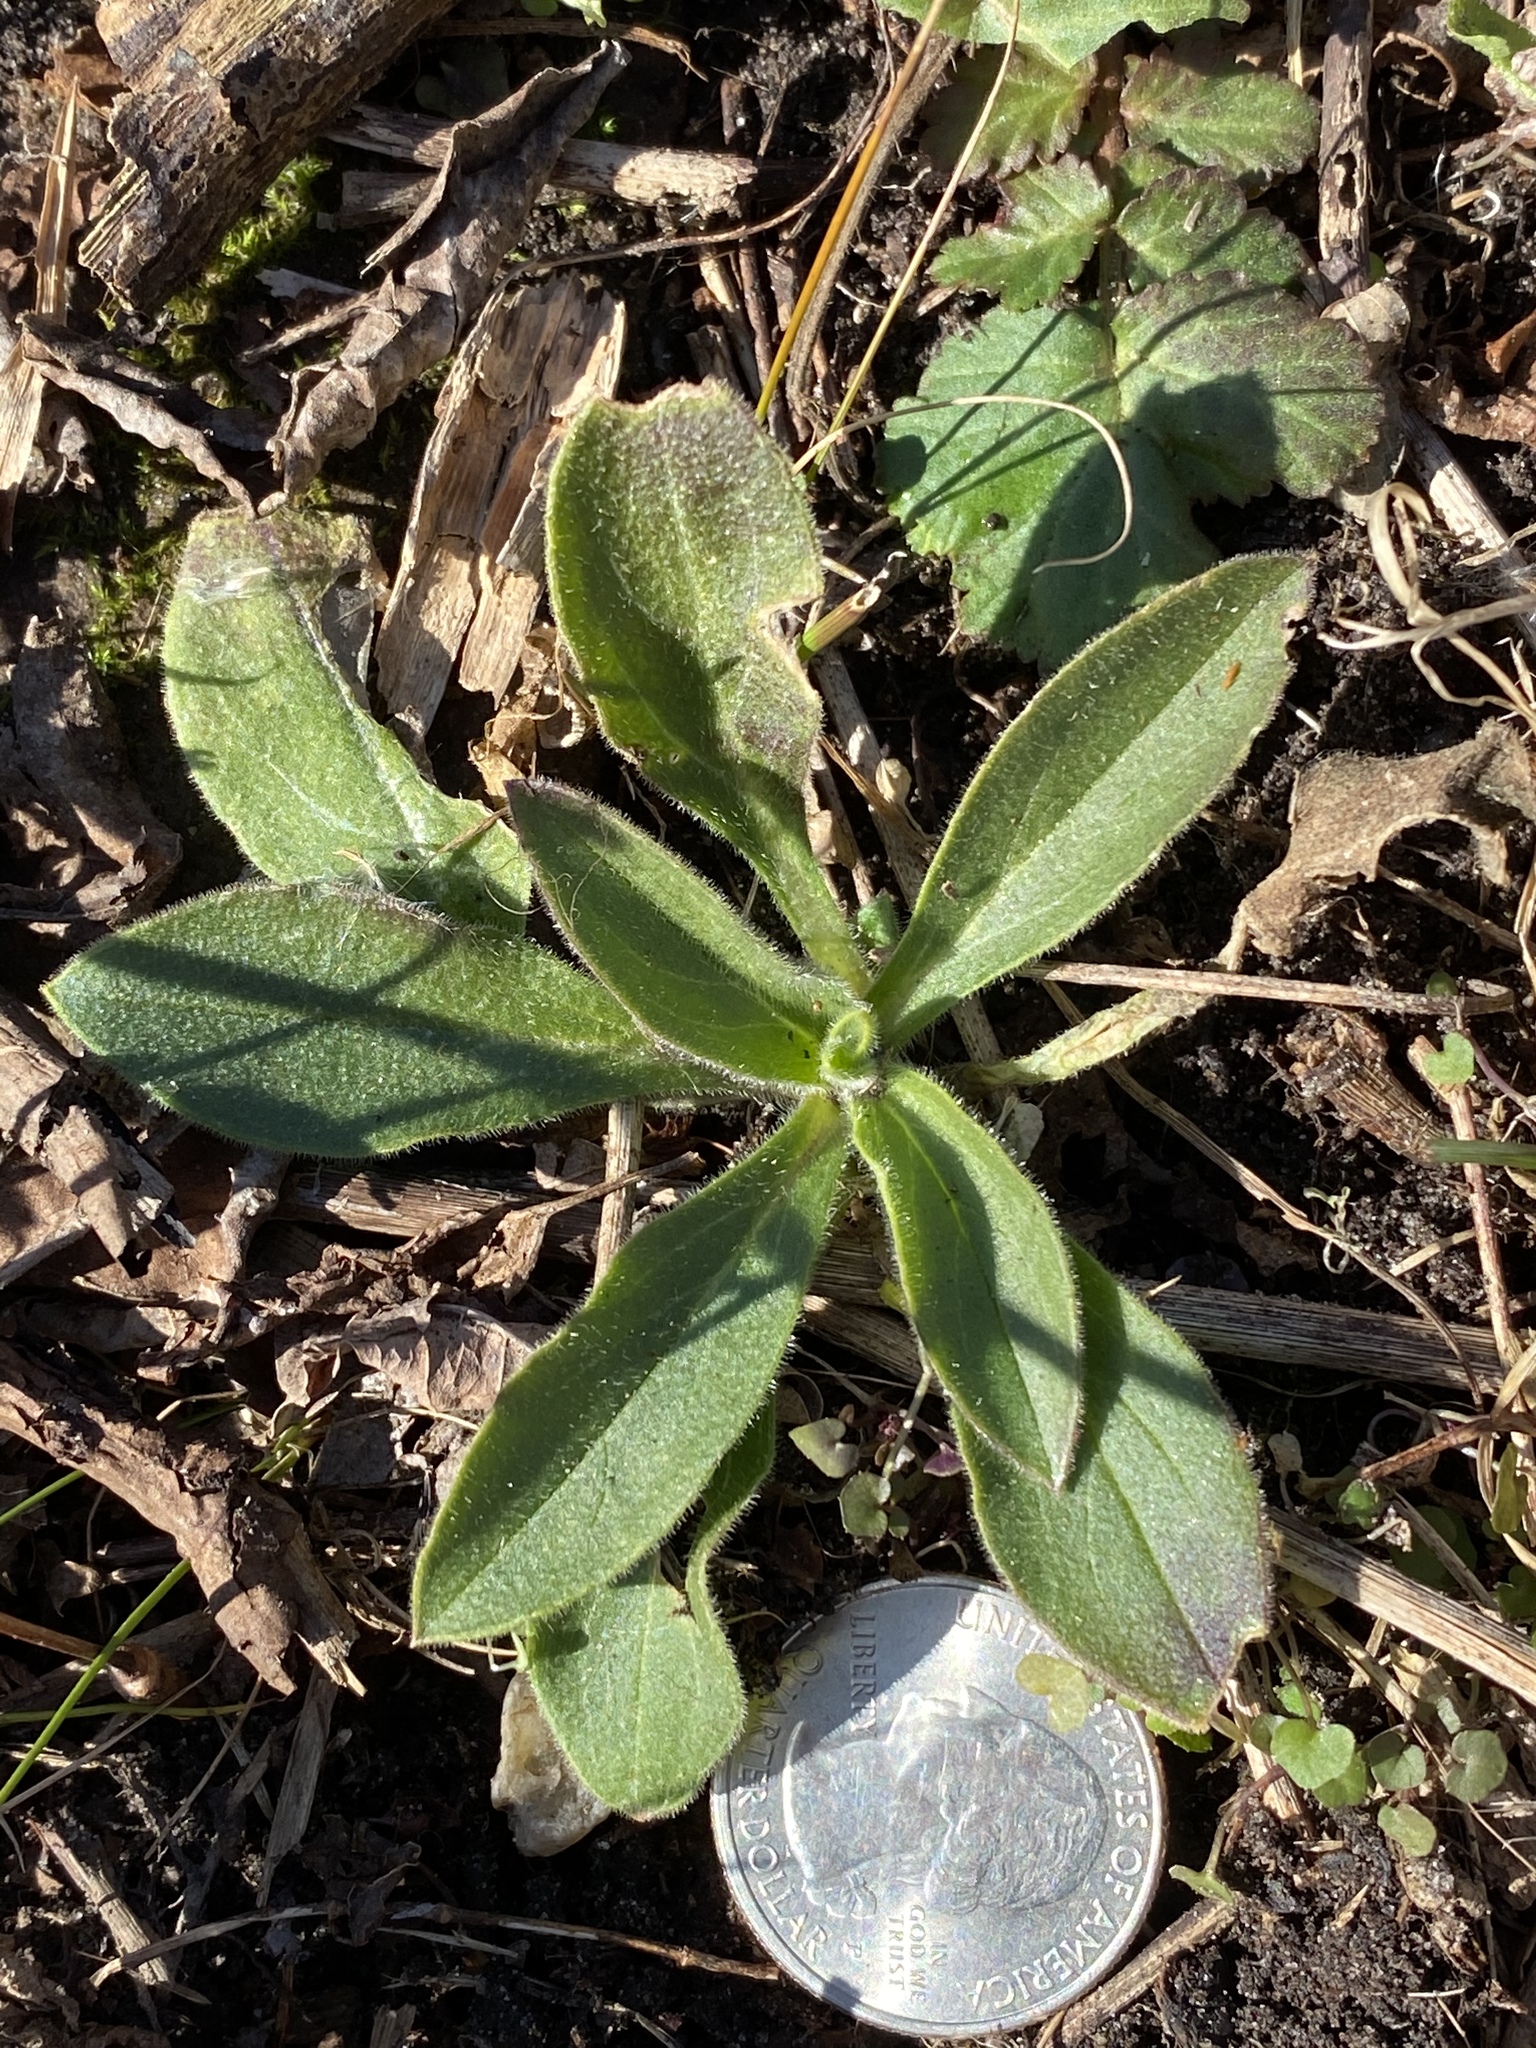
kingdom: Plantae
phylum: Tracheophyta
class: Magnoliopsida
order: Caryophyllales
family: Caryophyllaceae
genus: Silene
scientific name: Silene latifolia
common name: White campion
